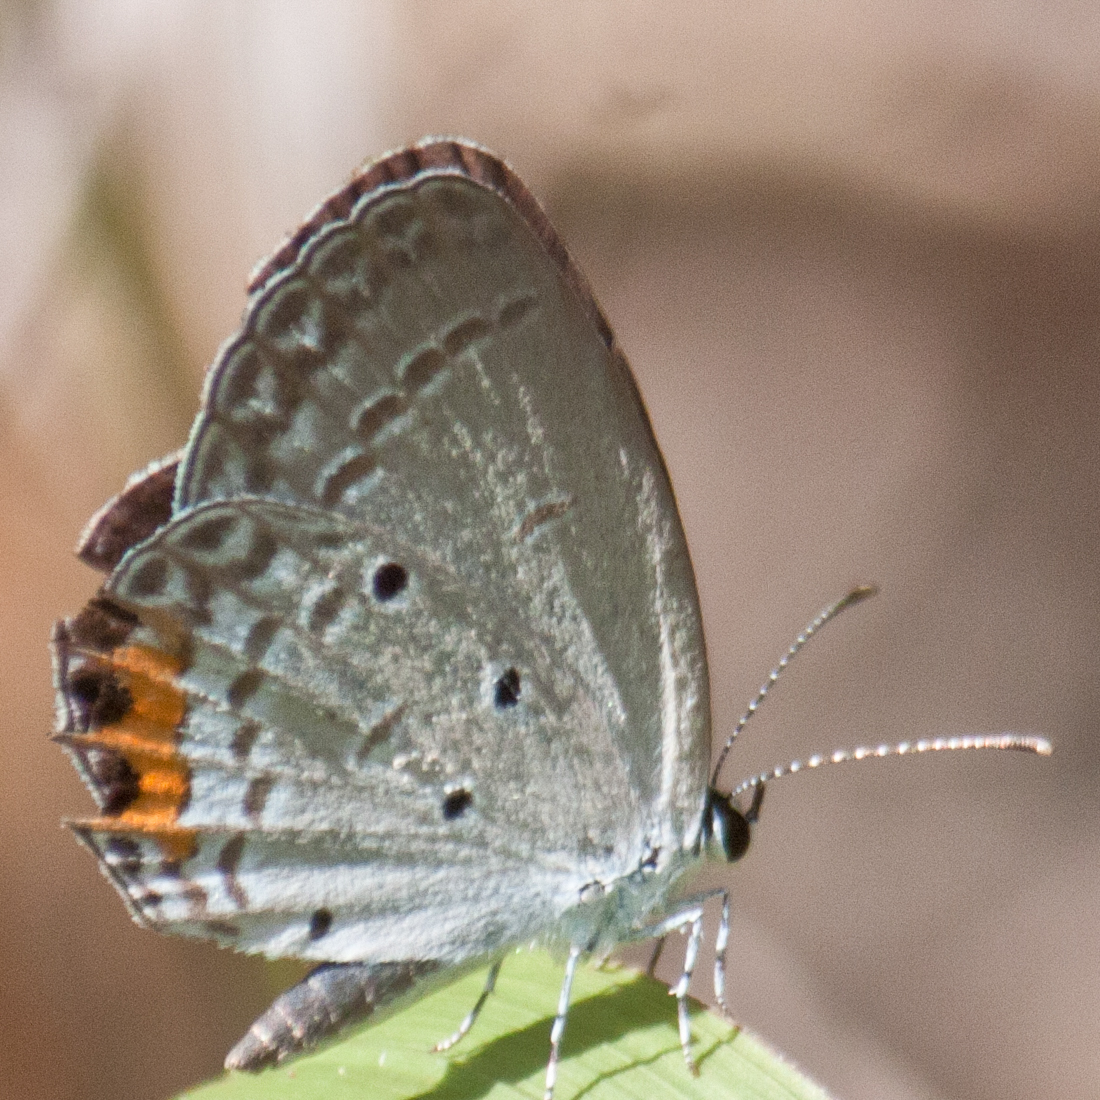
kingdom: Animalia
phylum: Arthropoda
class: Insecta
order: Lepidoptera
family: Lycaenidae
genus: Everes
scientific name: Everes lacturnus
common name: Orange-tipped pea-blue
